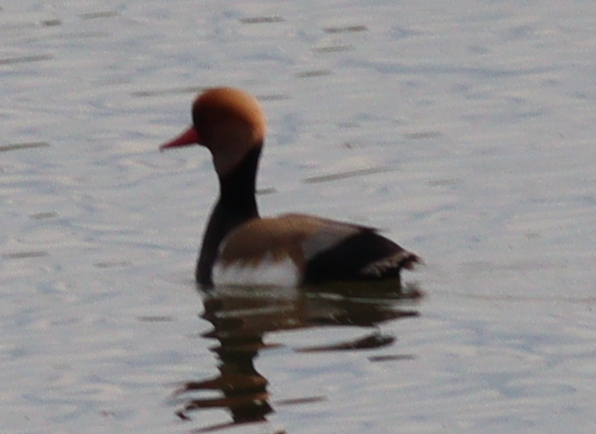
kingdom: Animalia
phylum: Chordata
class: Aves
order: Anseriformes
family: Anatidae
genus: Netta
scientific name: Netta rufina
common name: Red-crested pochard
